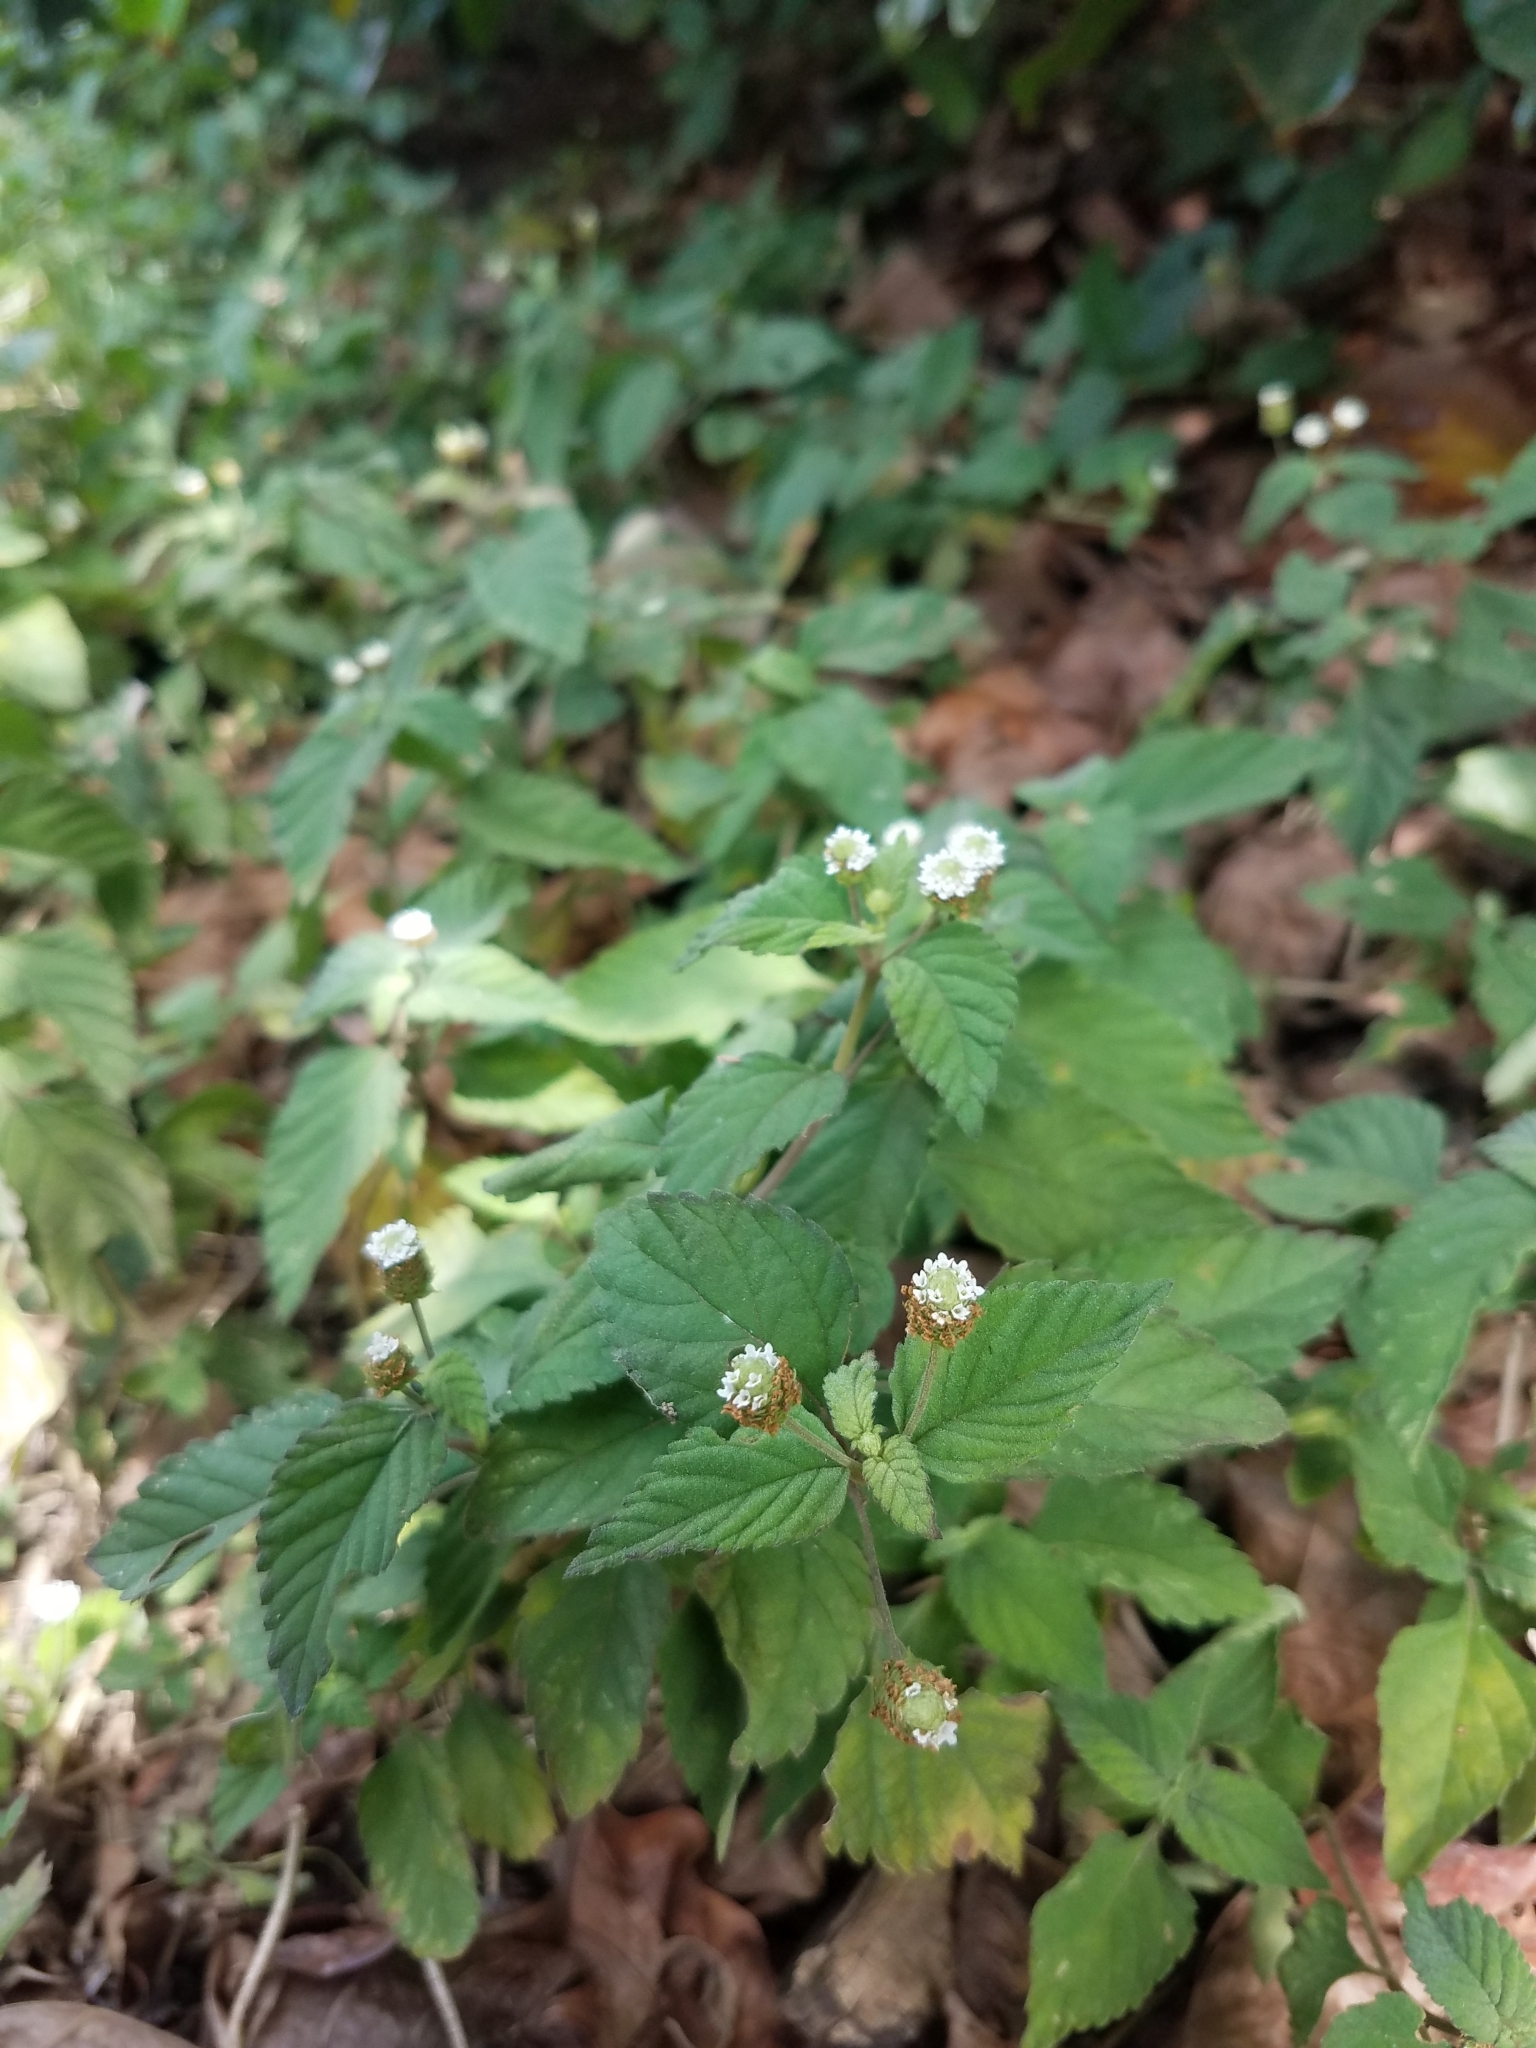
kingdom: Plantae
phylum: Tracheophyta
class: Magnoliopsida
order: Lamiales
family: Verbenaceae
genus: Lippia
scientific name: Lippia dulcis
